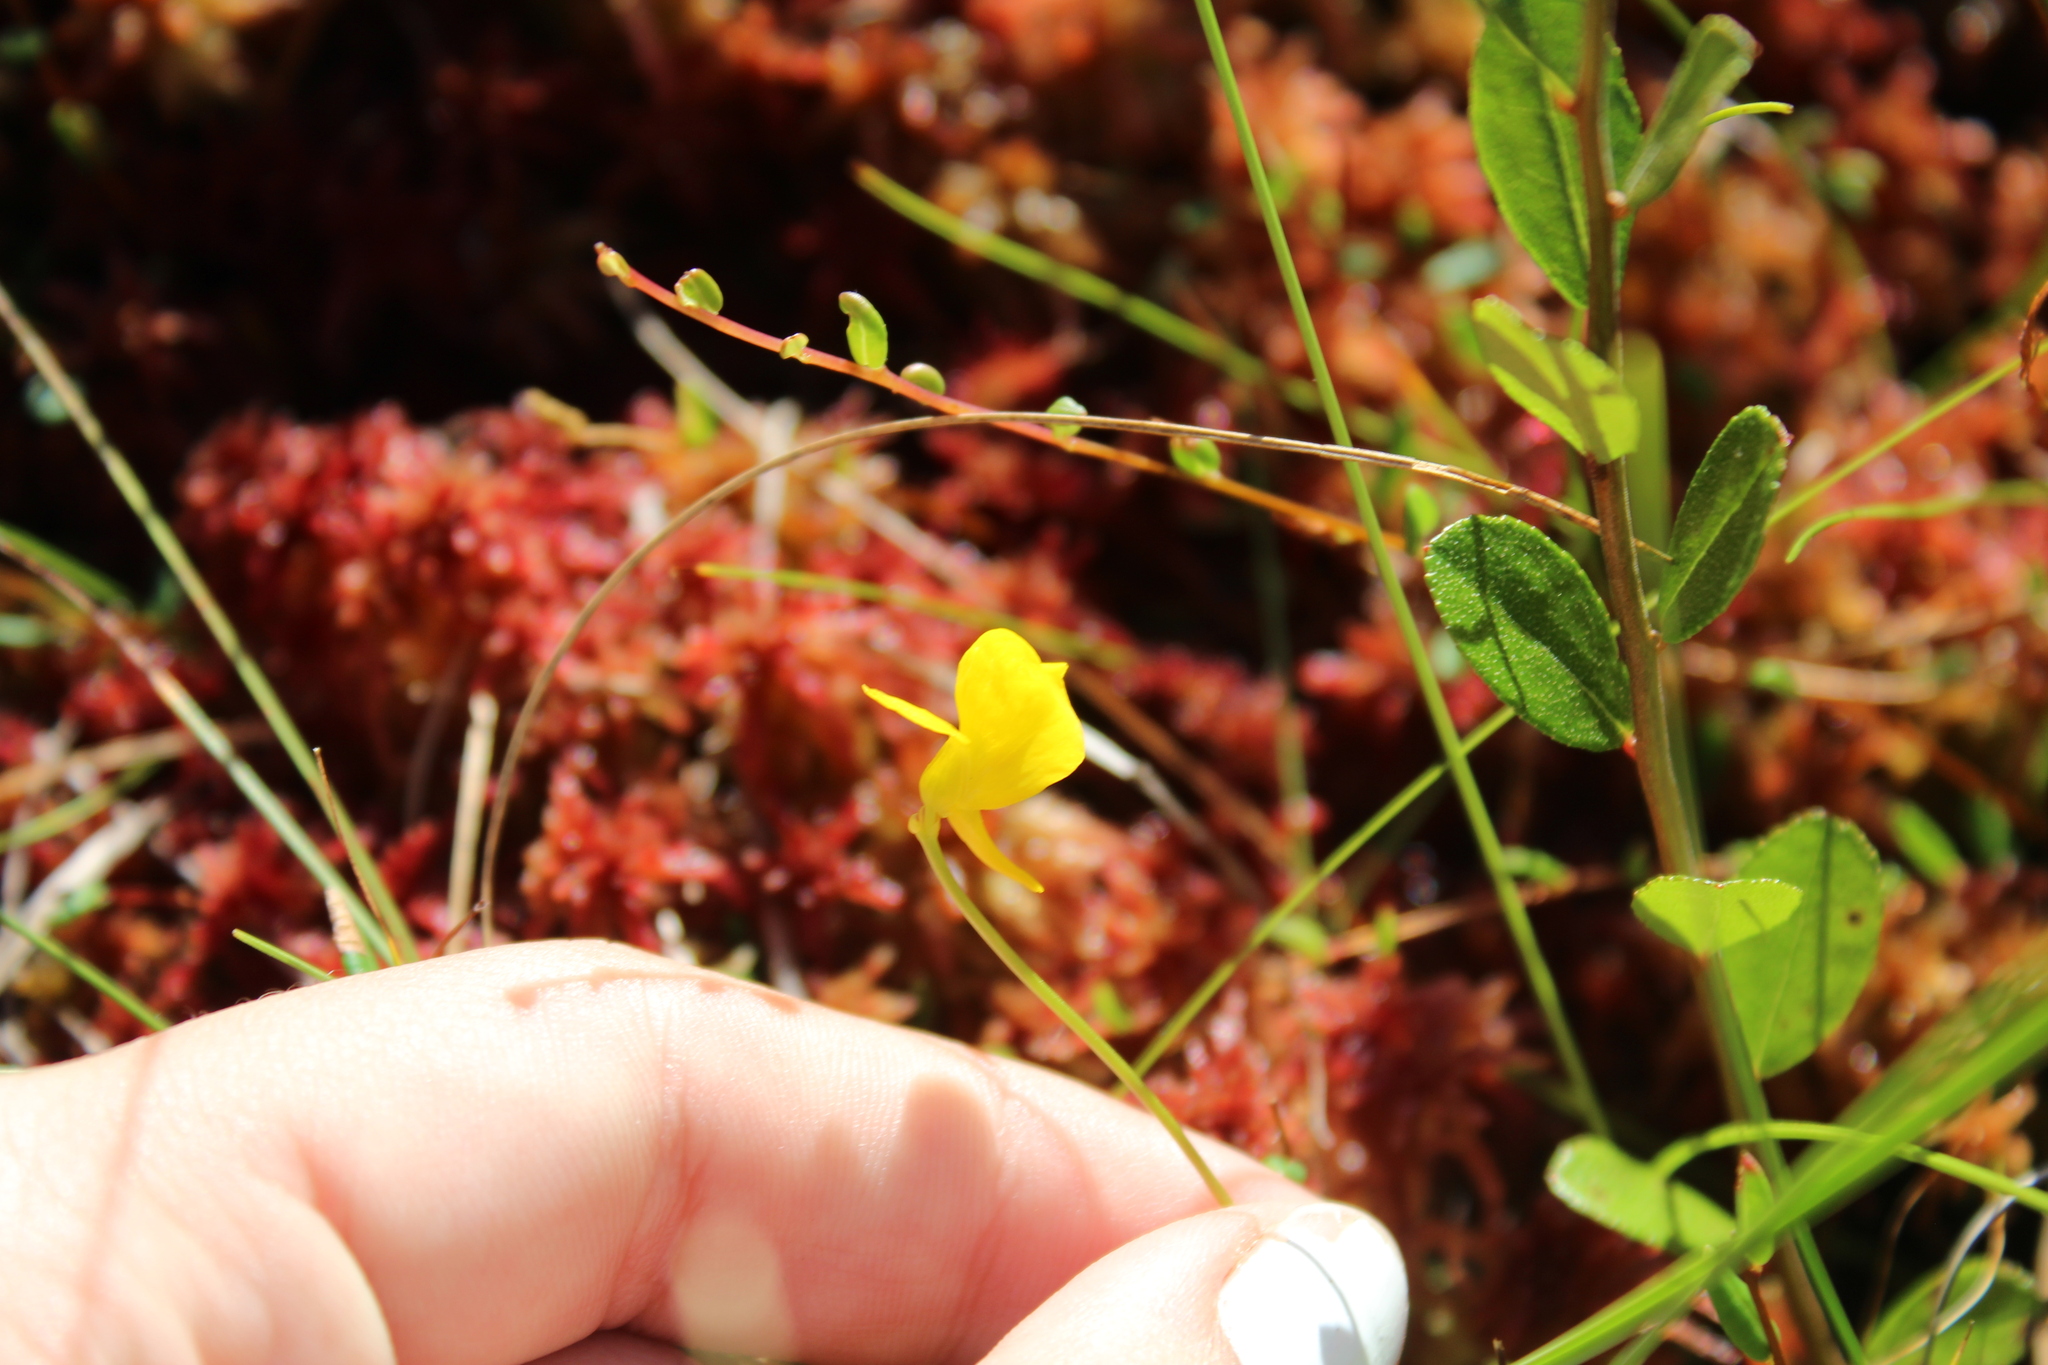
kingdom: Plantae
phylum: Tracheophyta
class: Magnoliopsida
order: Lamiales
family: Lentibulariaceae
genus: Utricularia
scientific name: Utricularia cornuta
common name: Horned bladderwort
